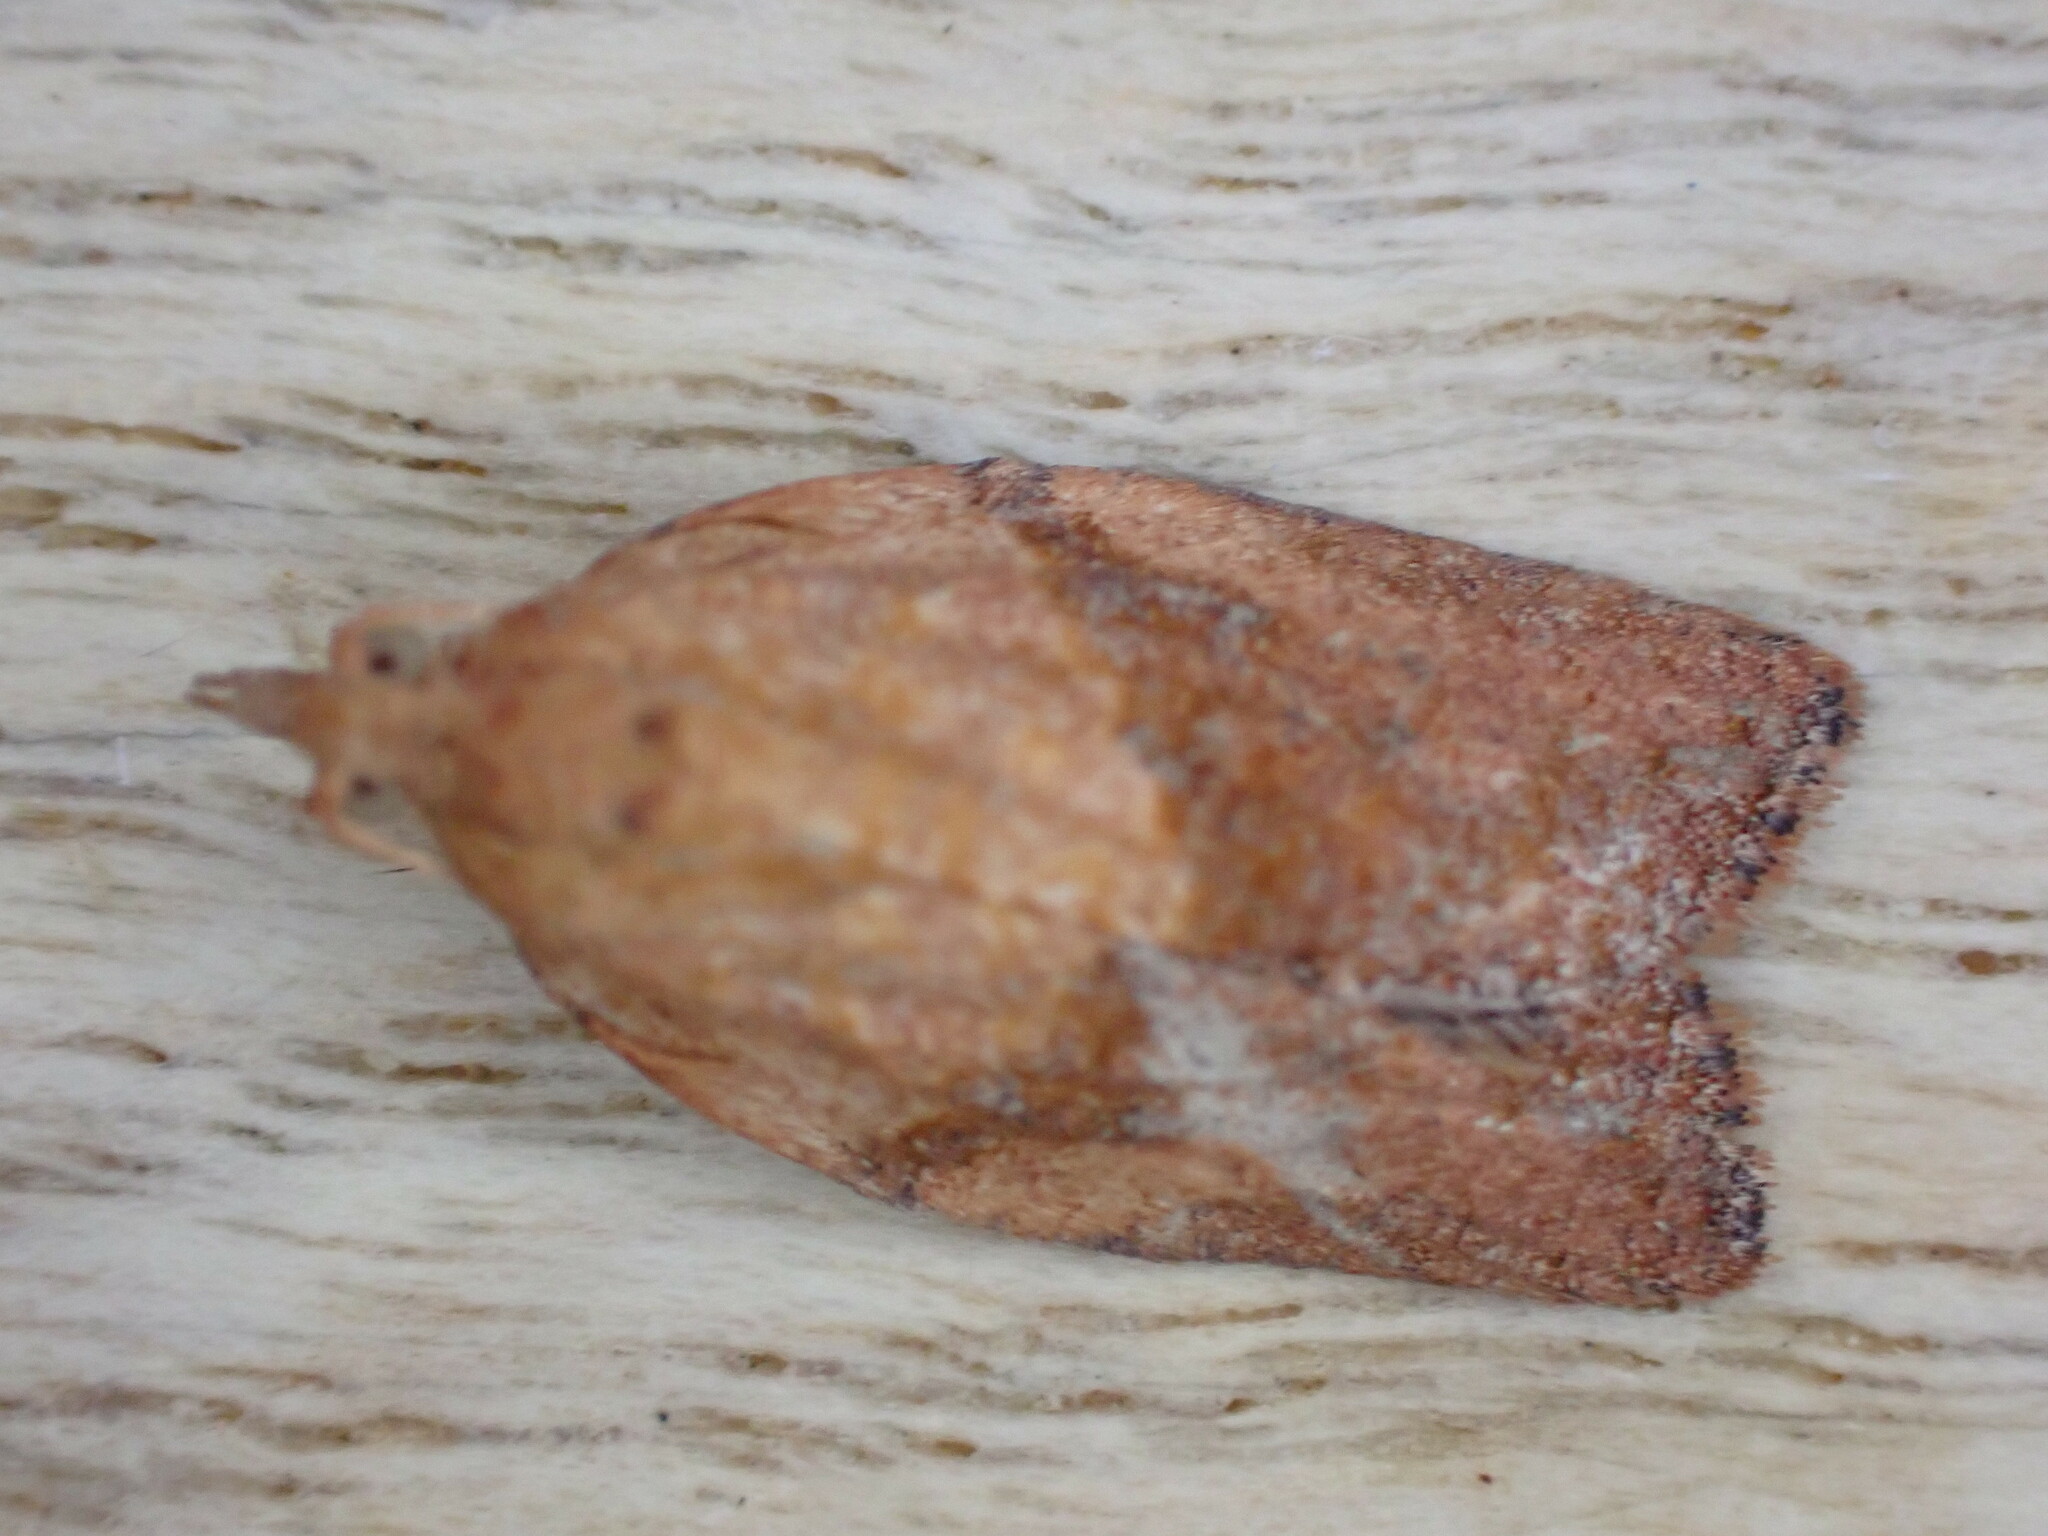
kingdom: Animalia
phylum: Arthropoda
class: Insecta
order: Lepidoptera
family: Tortricidae
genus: Epiphyas
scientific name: Epiphyas postvittana
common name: Light brown apple moth
